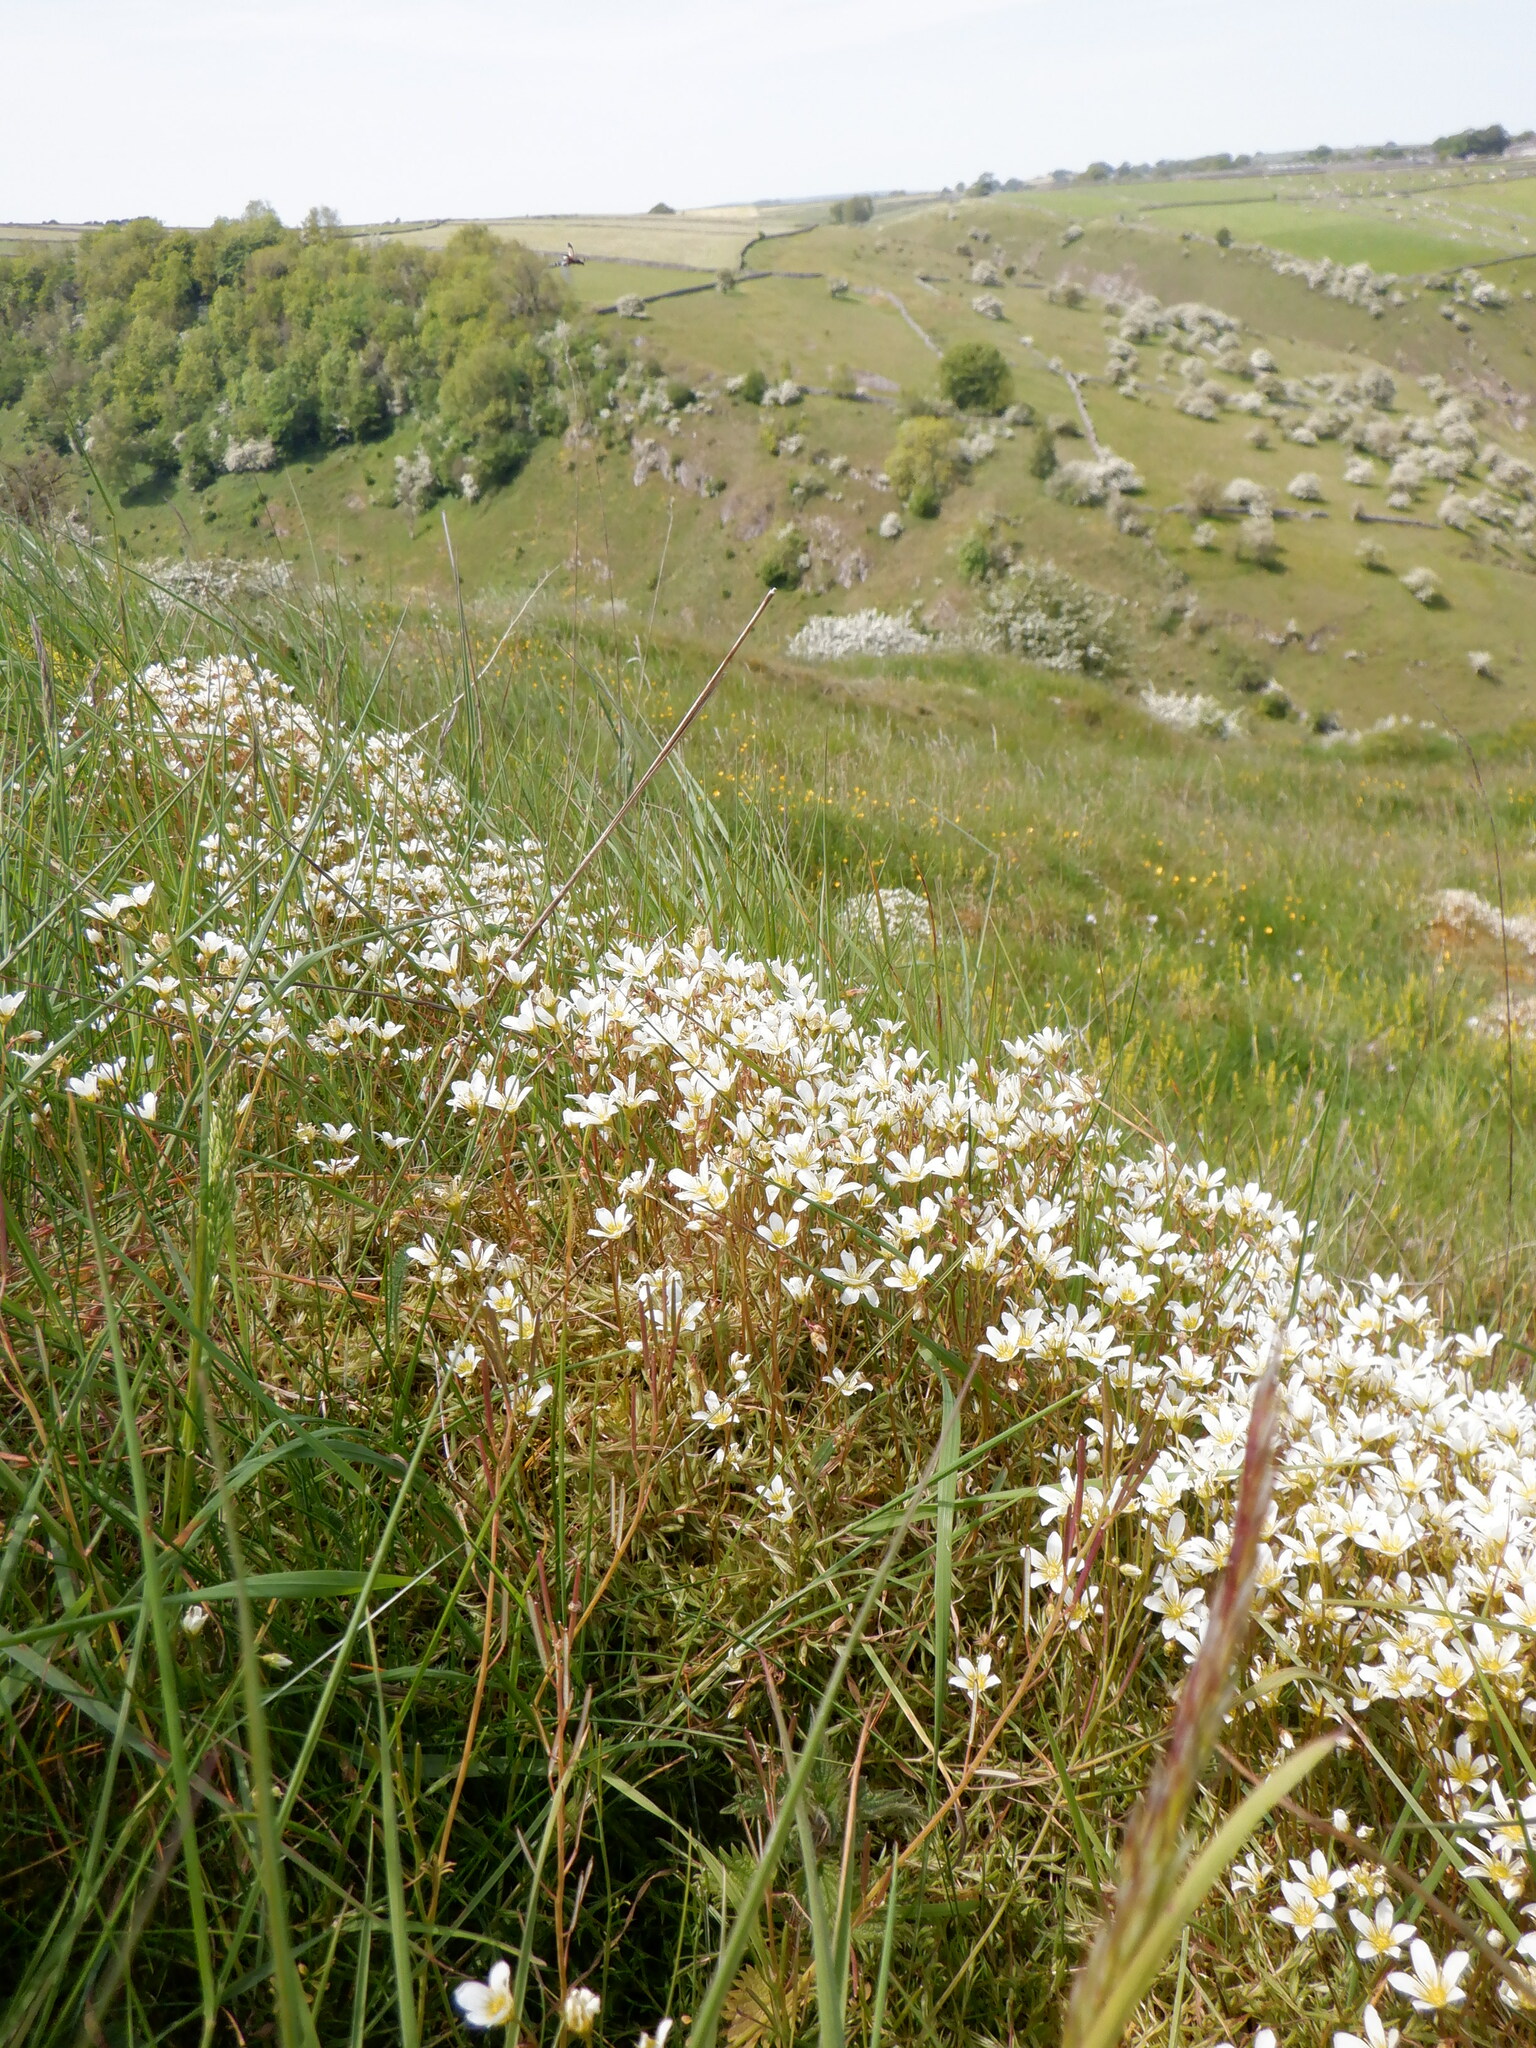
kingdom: Plantae
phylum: Tracheophyta
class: Magnoliopsida
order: Saxifragales
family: Saxifragaceae
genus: Saxifraga
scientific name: Saxifraga hypnoides
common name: Mossy saxifrage
